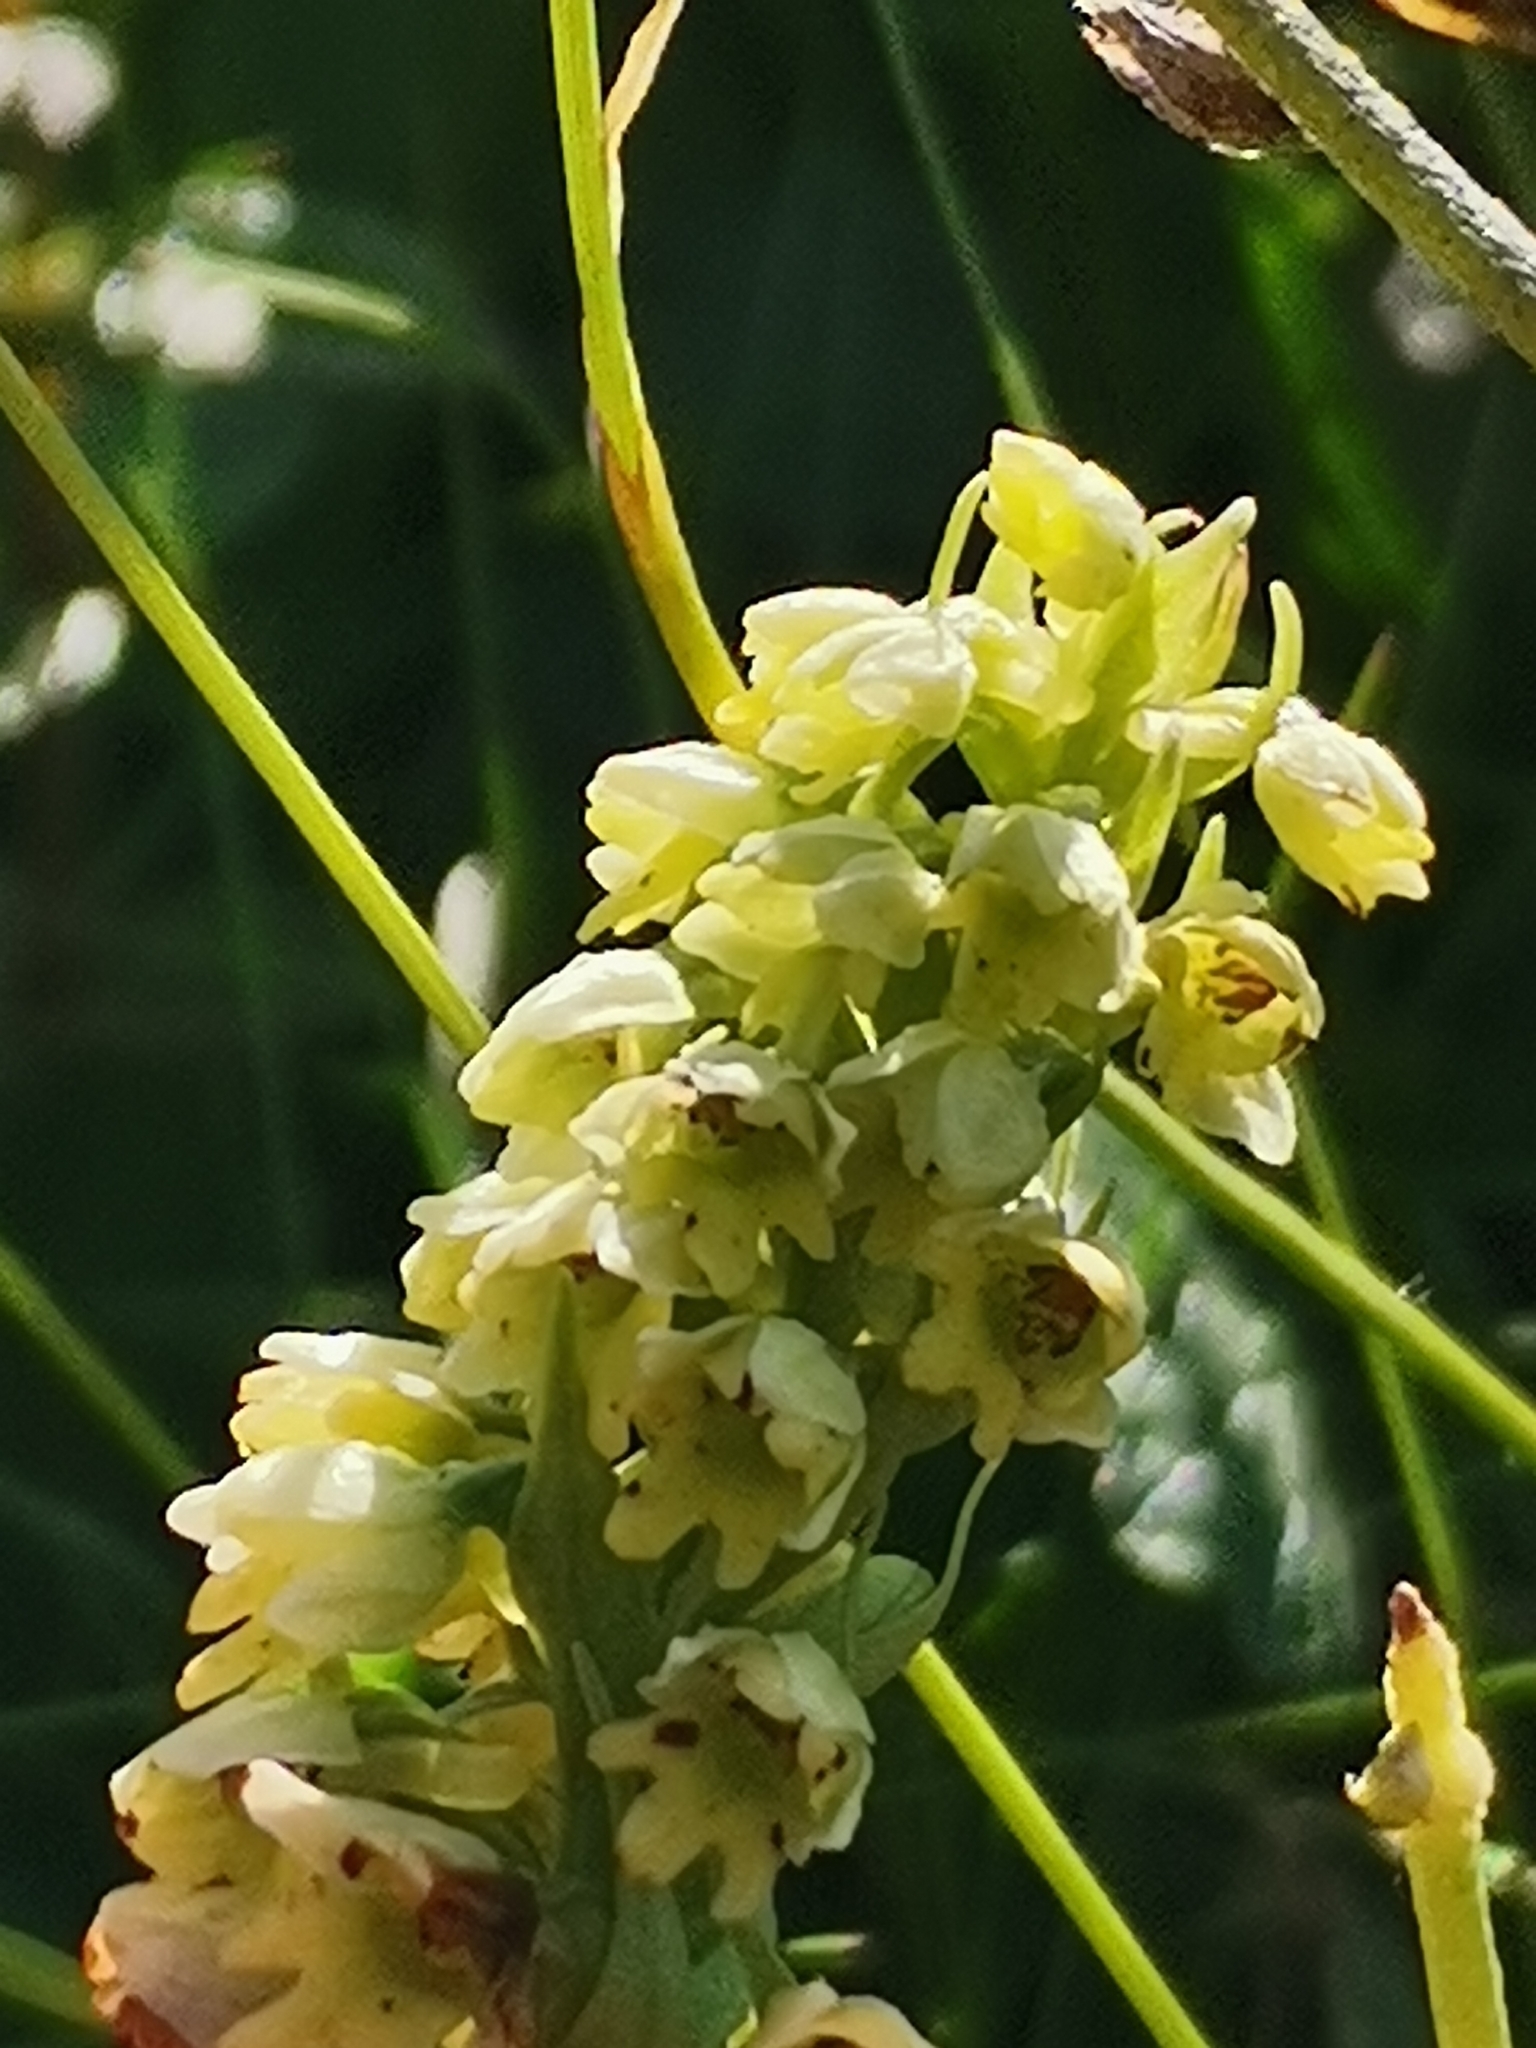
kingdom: Plantae
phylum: Tracheophyta
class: Liliopsida
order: Asparagales
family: Orchidaceae
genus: Pseudorchis
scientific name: Pseudorchis albida
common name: Small-white orchid
